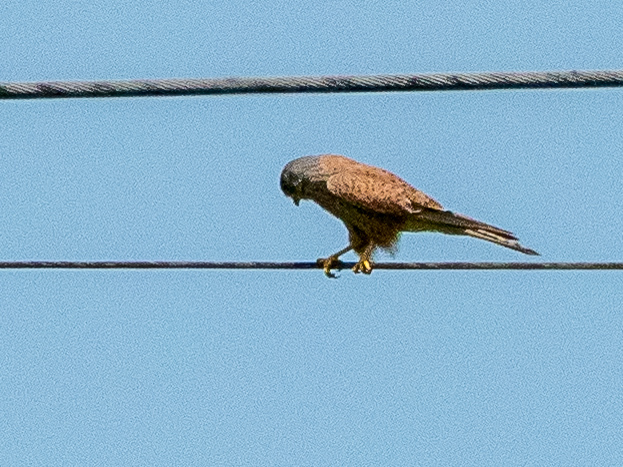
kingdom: Animalia
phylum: Chordata
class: Aves
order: Falconiformes
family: Falconidae
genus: Falco
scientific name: Falco tinnunculus
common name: Common kestrel
